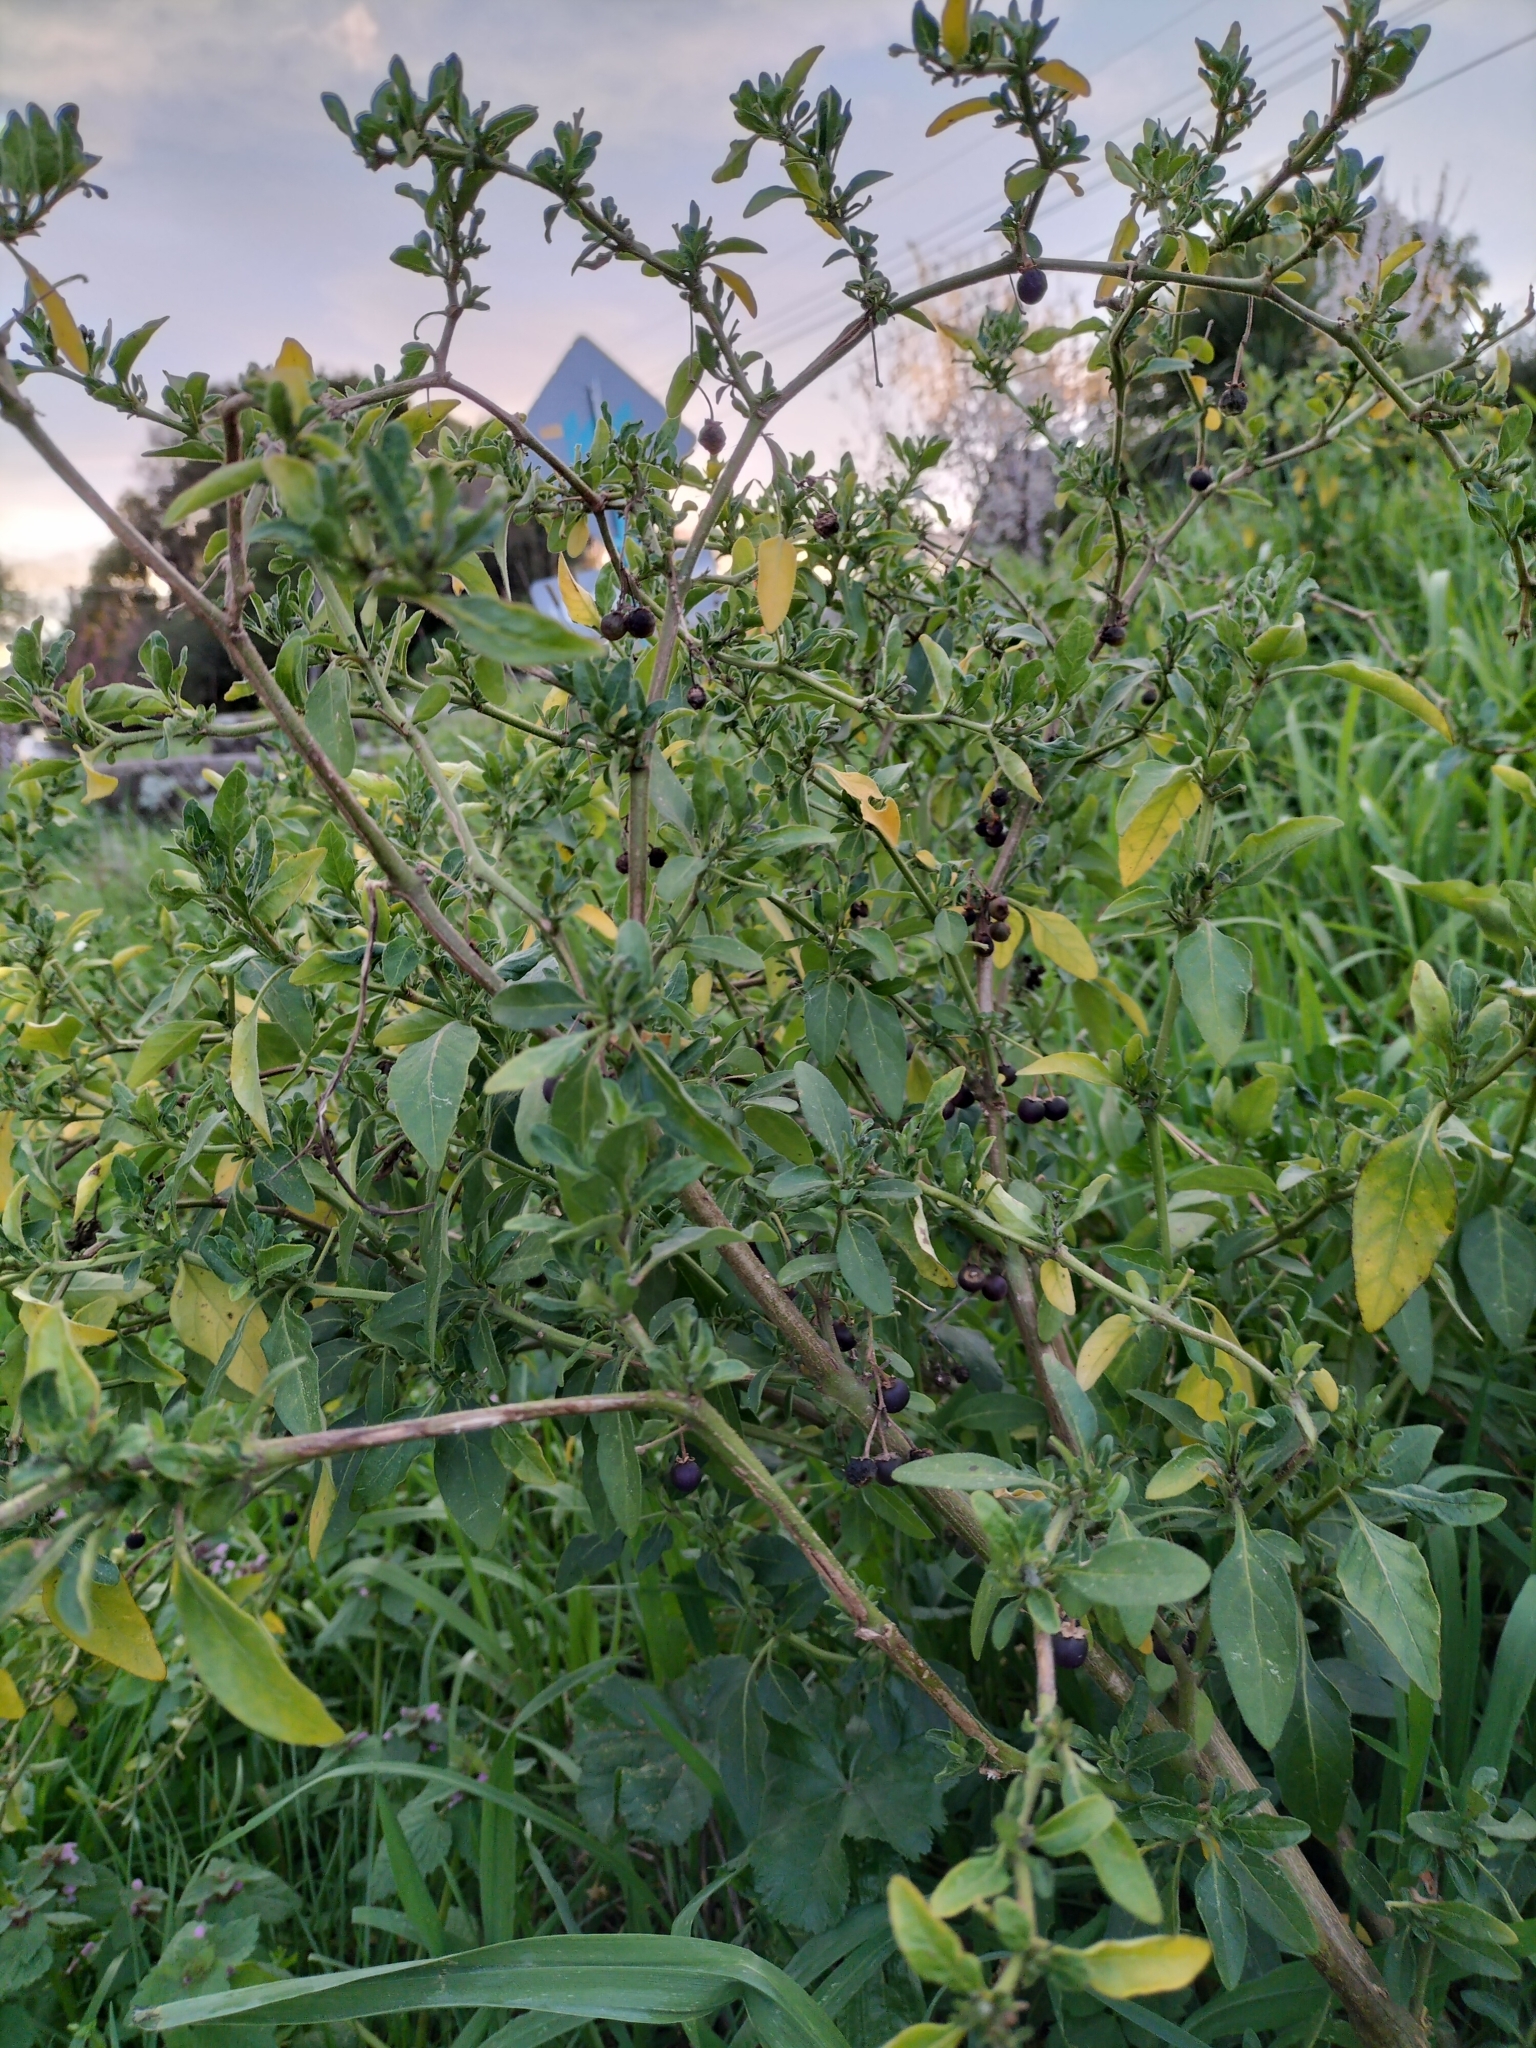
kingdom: Plantae
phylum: Tracheophyta
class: Magnoliopsida
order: Solanales
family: Solanaceae
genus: Solanum
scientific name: Solanum chenopodioides
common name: Tall nightshade
